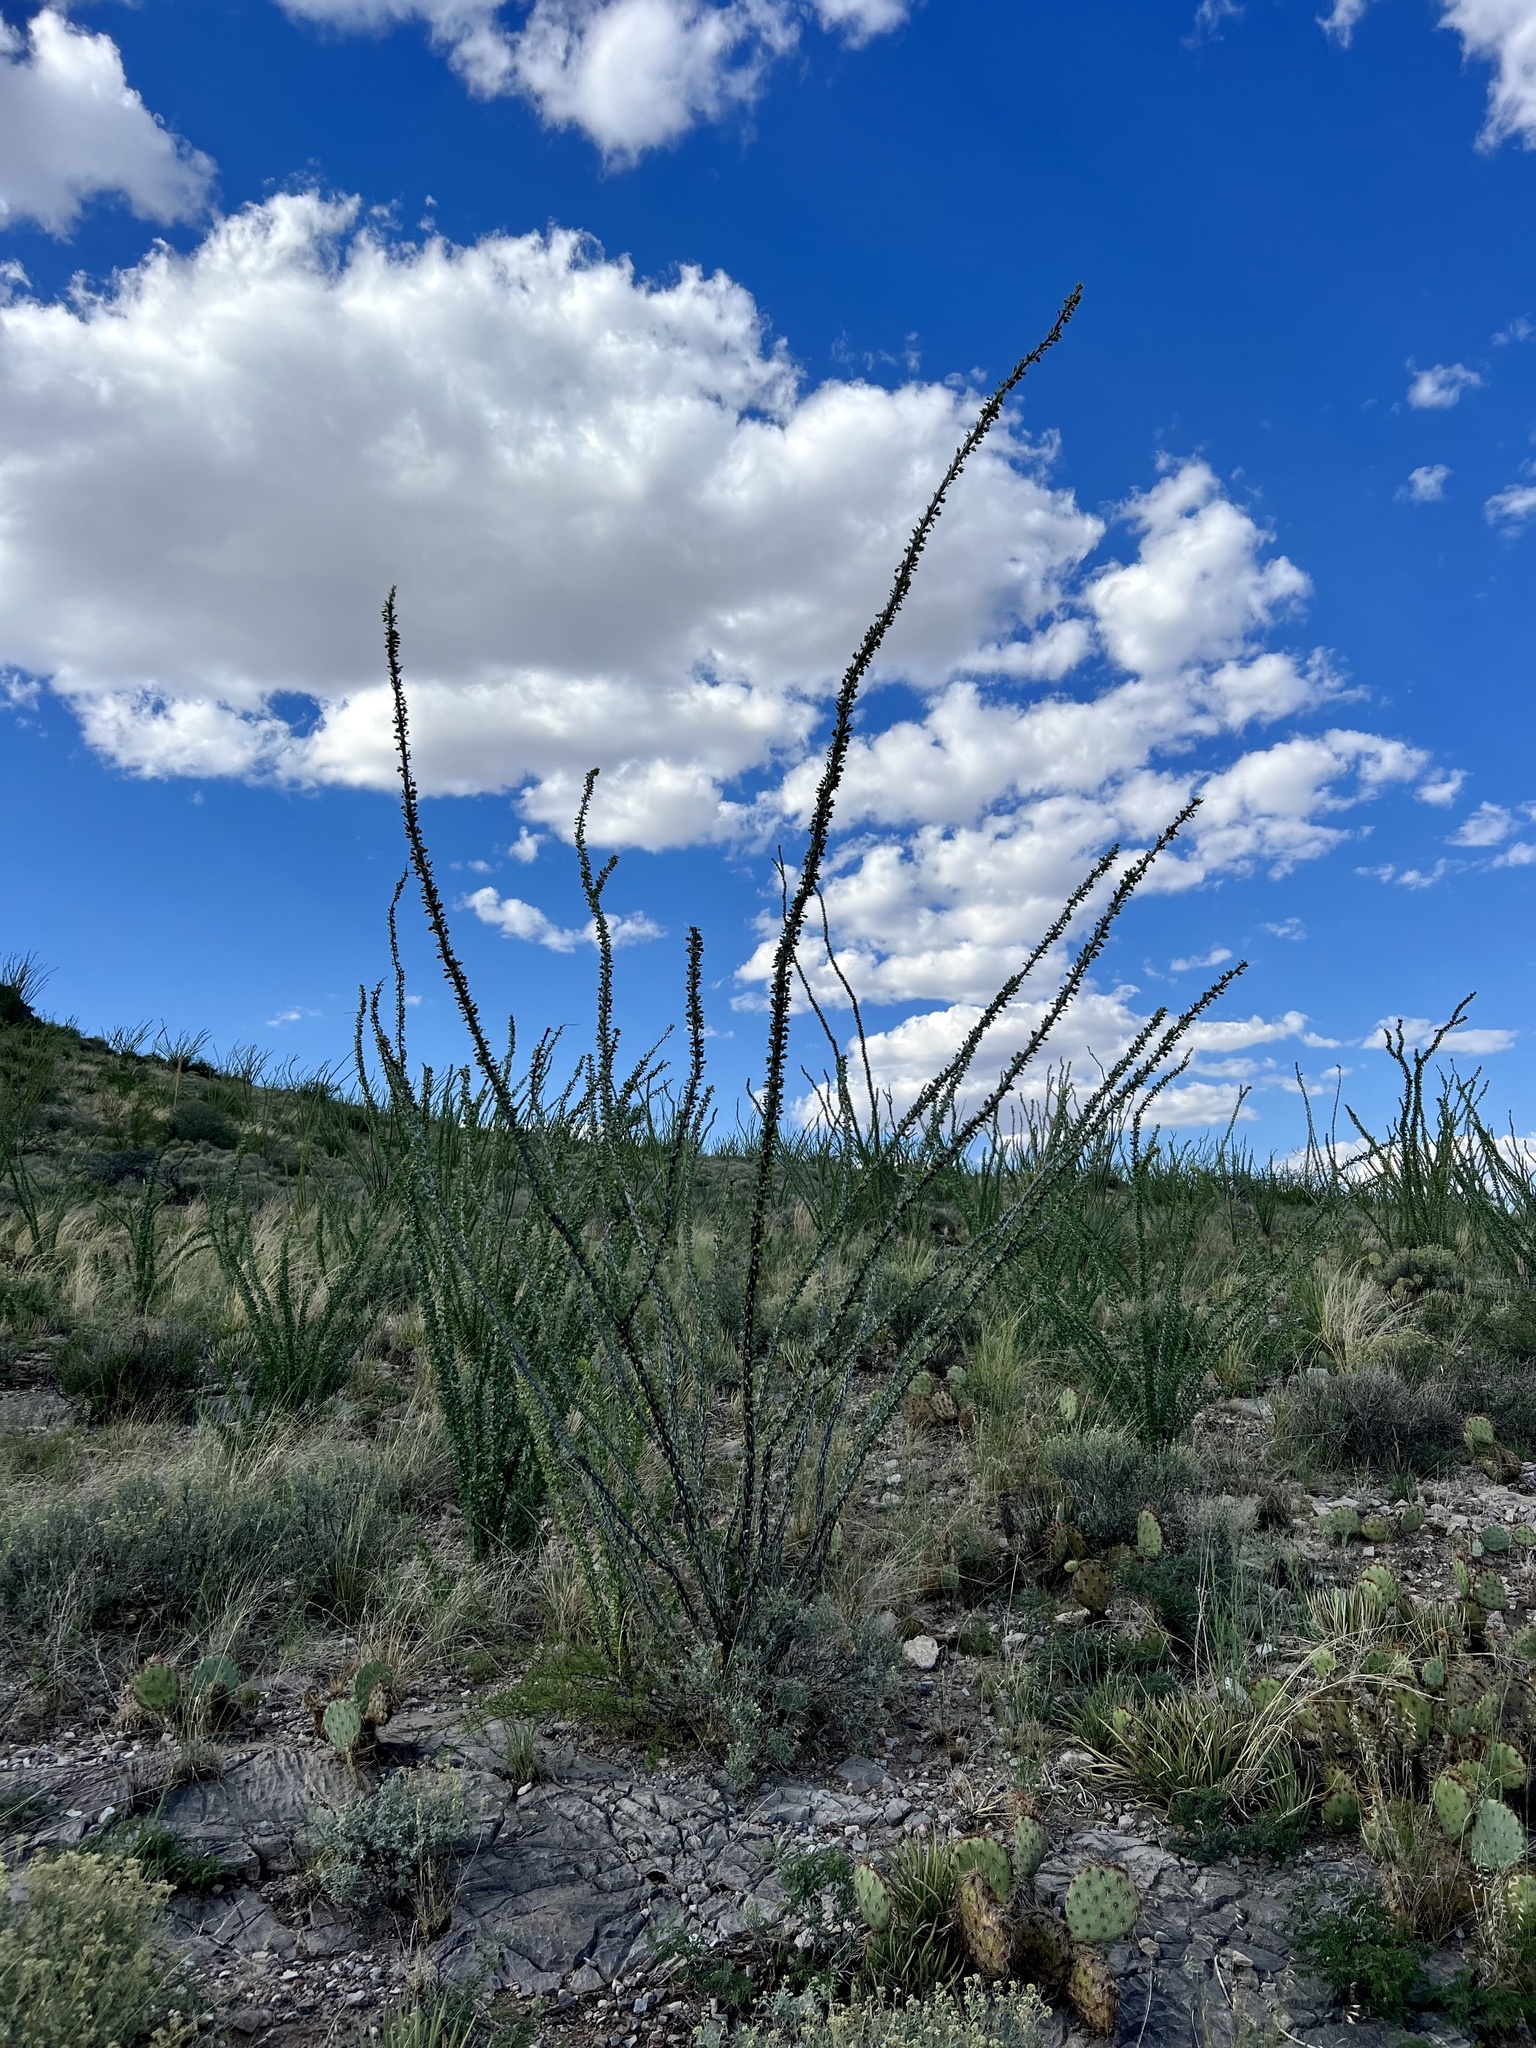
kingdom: Plantae
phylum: Tracheophyta
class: Magnoliopsida
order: Ericales
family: Fouquieriaceae
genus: Fouquieria
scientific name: Fouquieria splendens
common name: Vine-cactus
